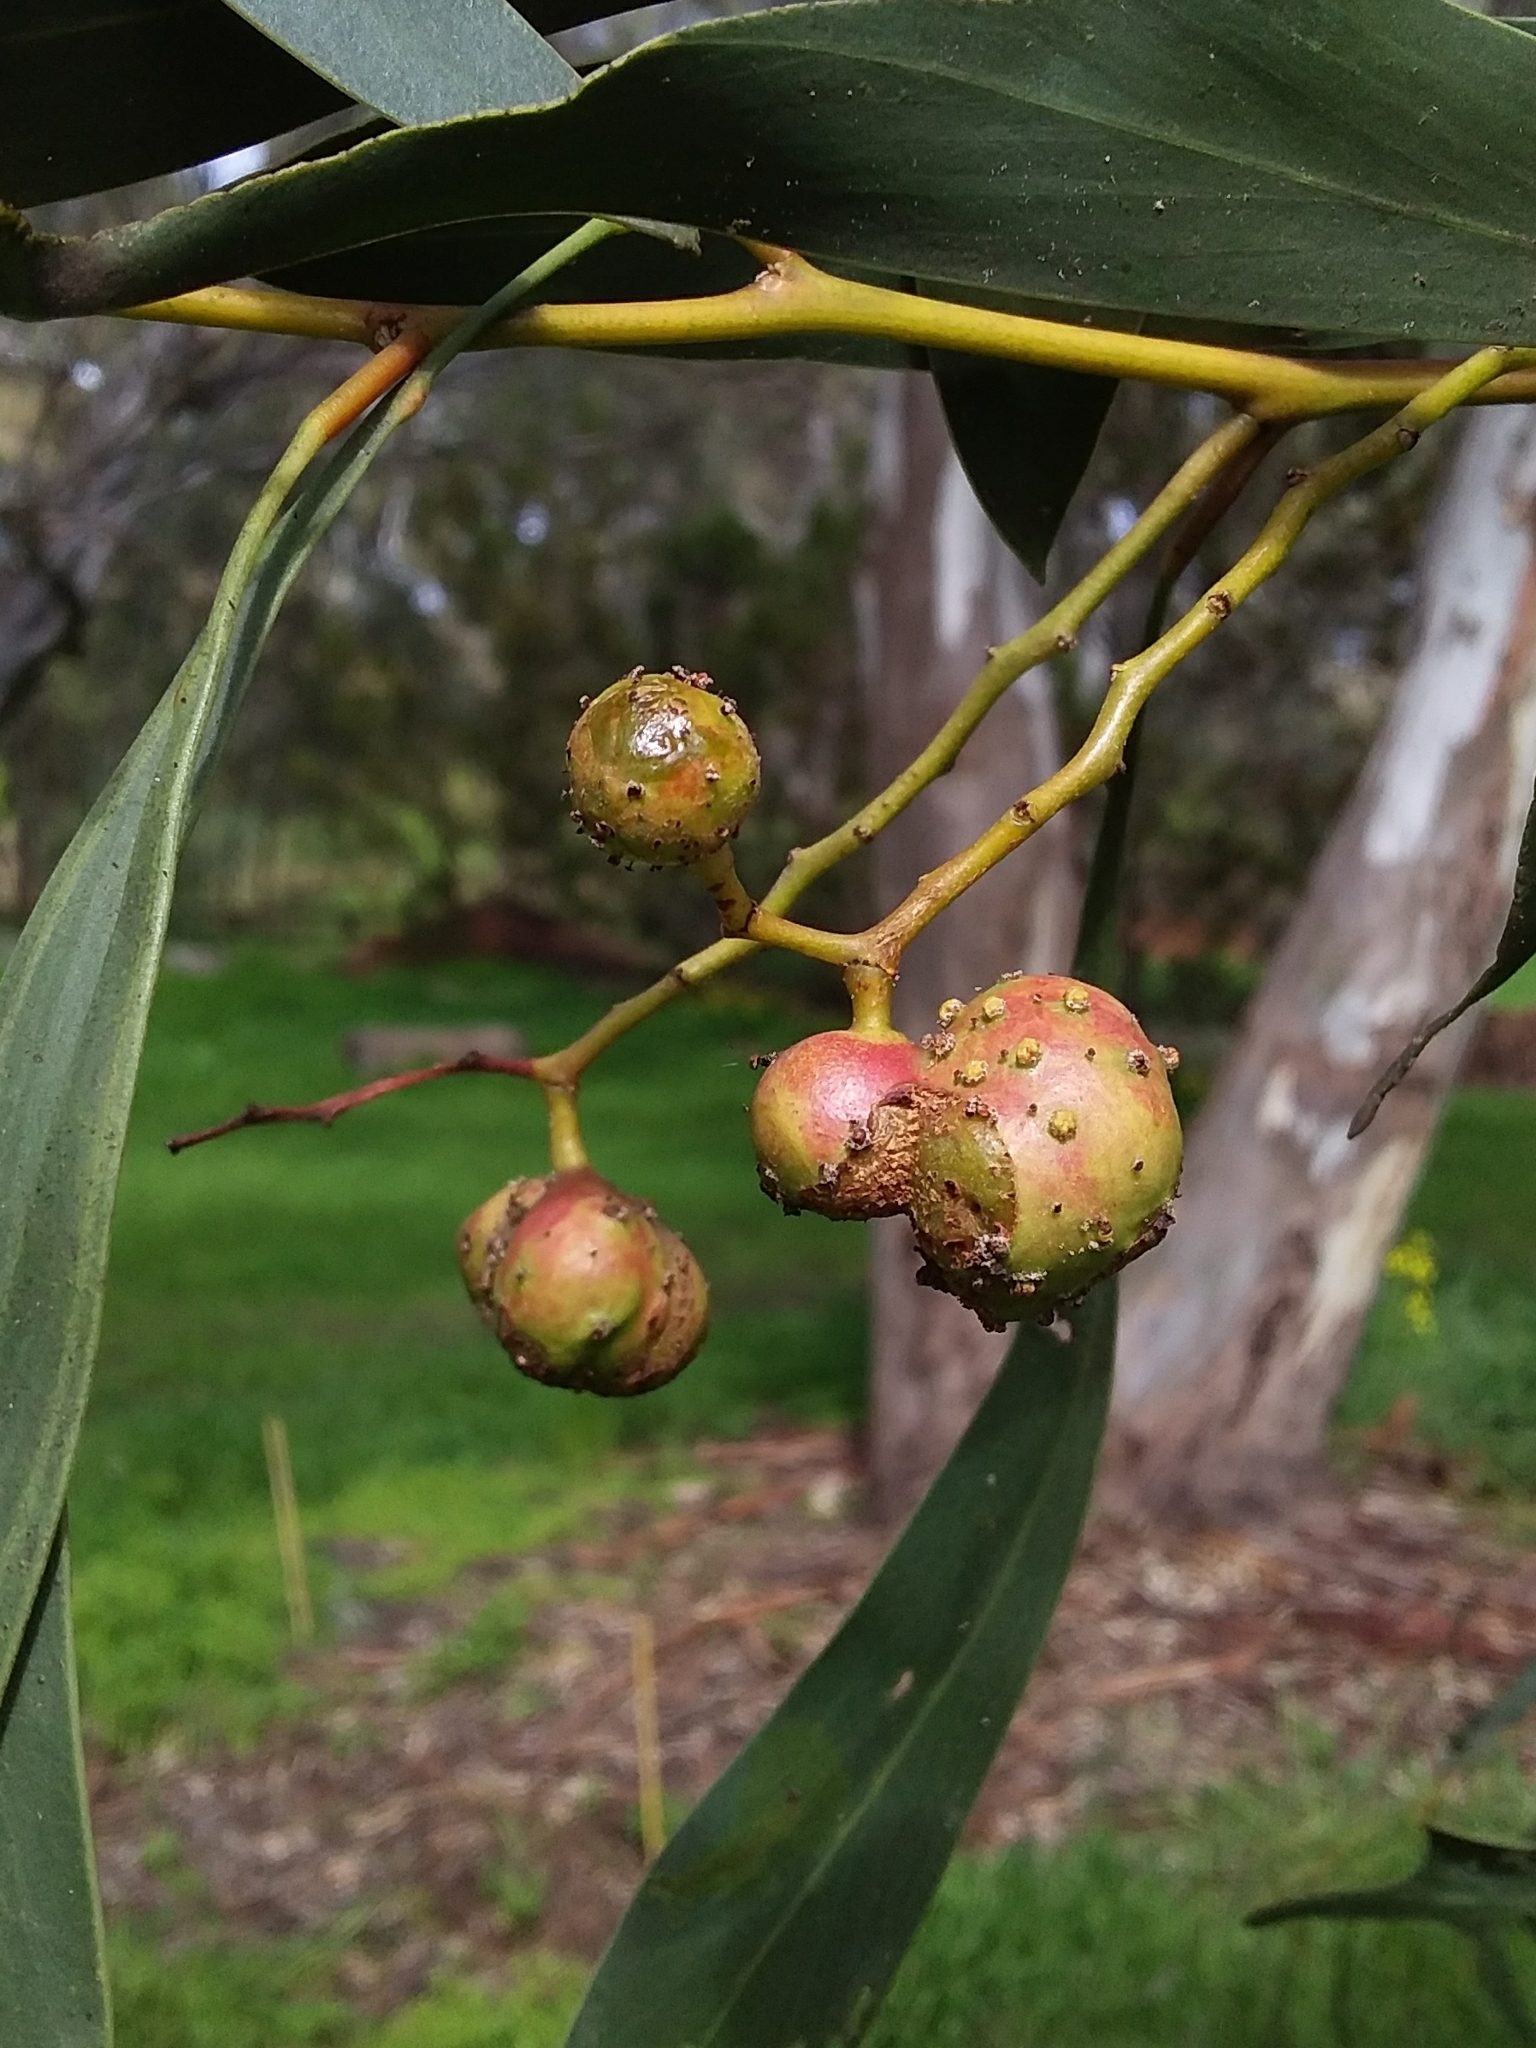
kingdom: Animalia
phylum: Arthropoda
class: Insecta
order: Hymenoptera
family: Pteromalidae
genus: Trichilogaster
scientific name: Trichilogaster signiventris
